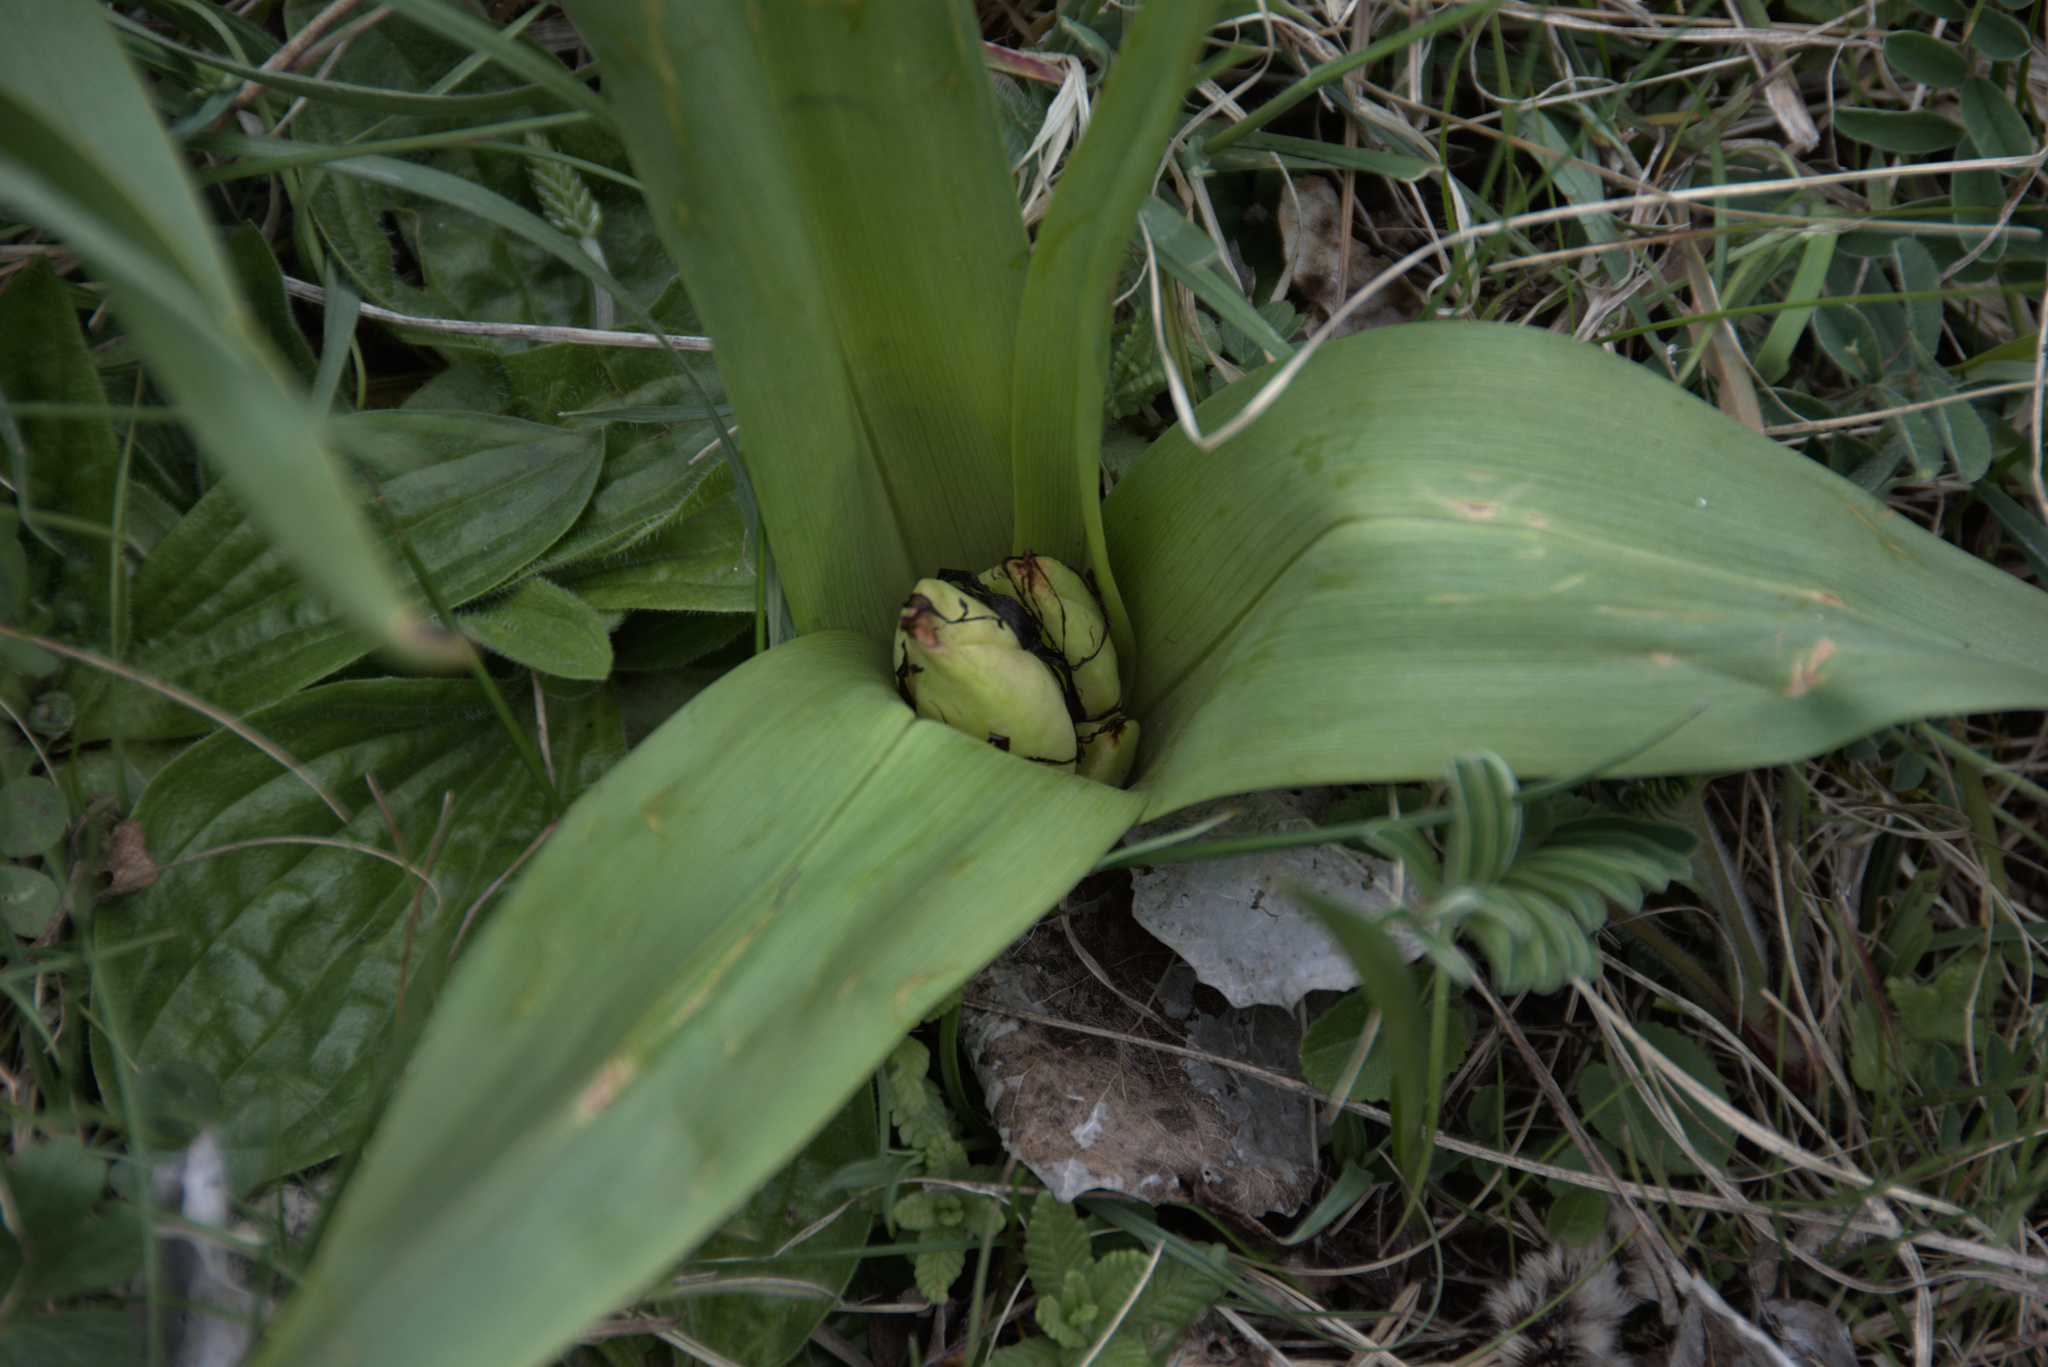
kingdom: Plantae
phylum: Tracheophyta
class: Liliopsida
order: Liliales
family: Colchicaceae
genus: Colchicum
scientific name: Colchicum autumnale
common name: Autumn crocus
